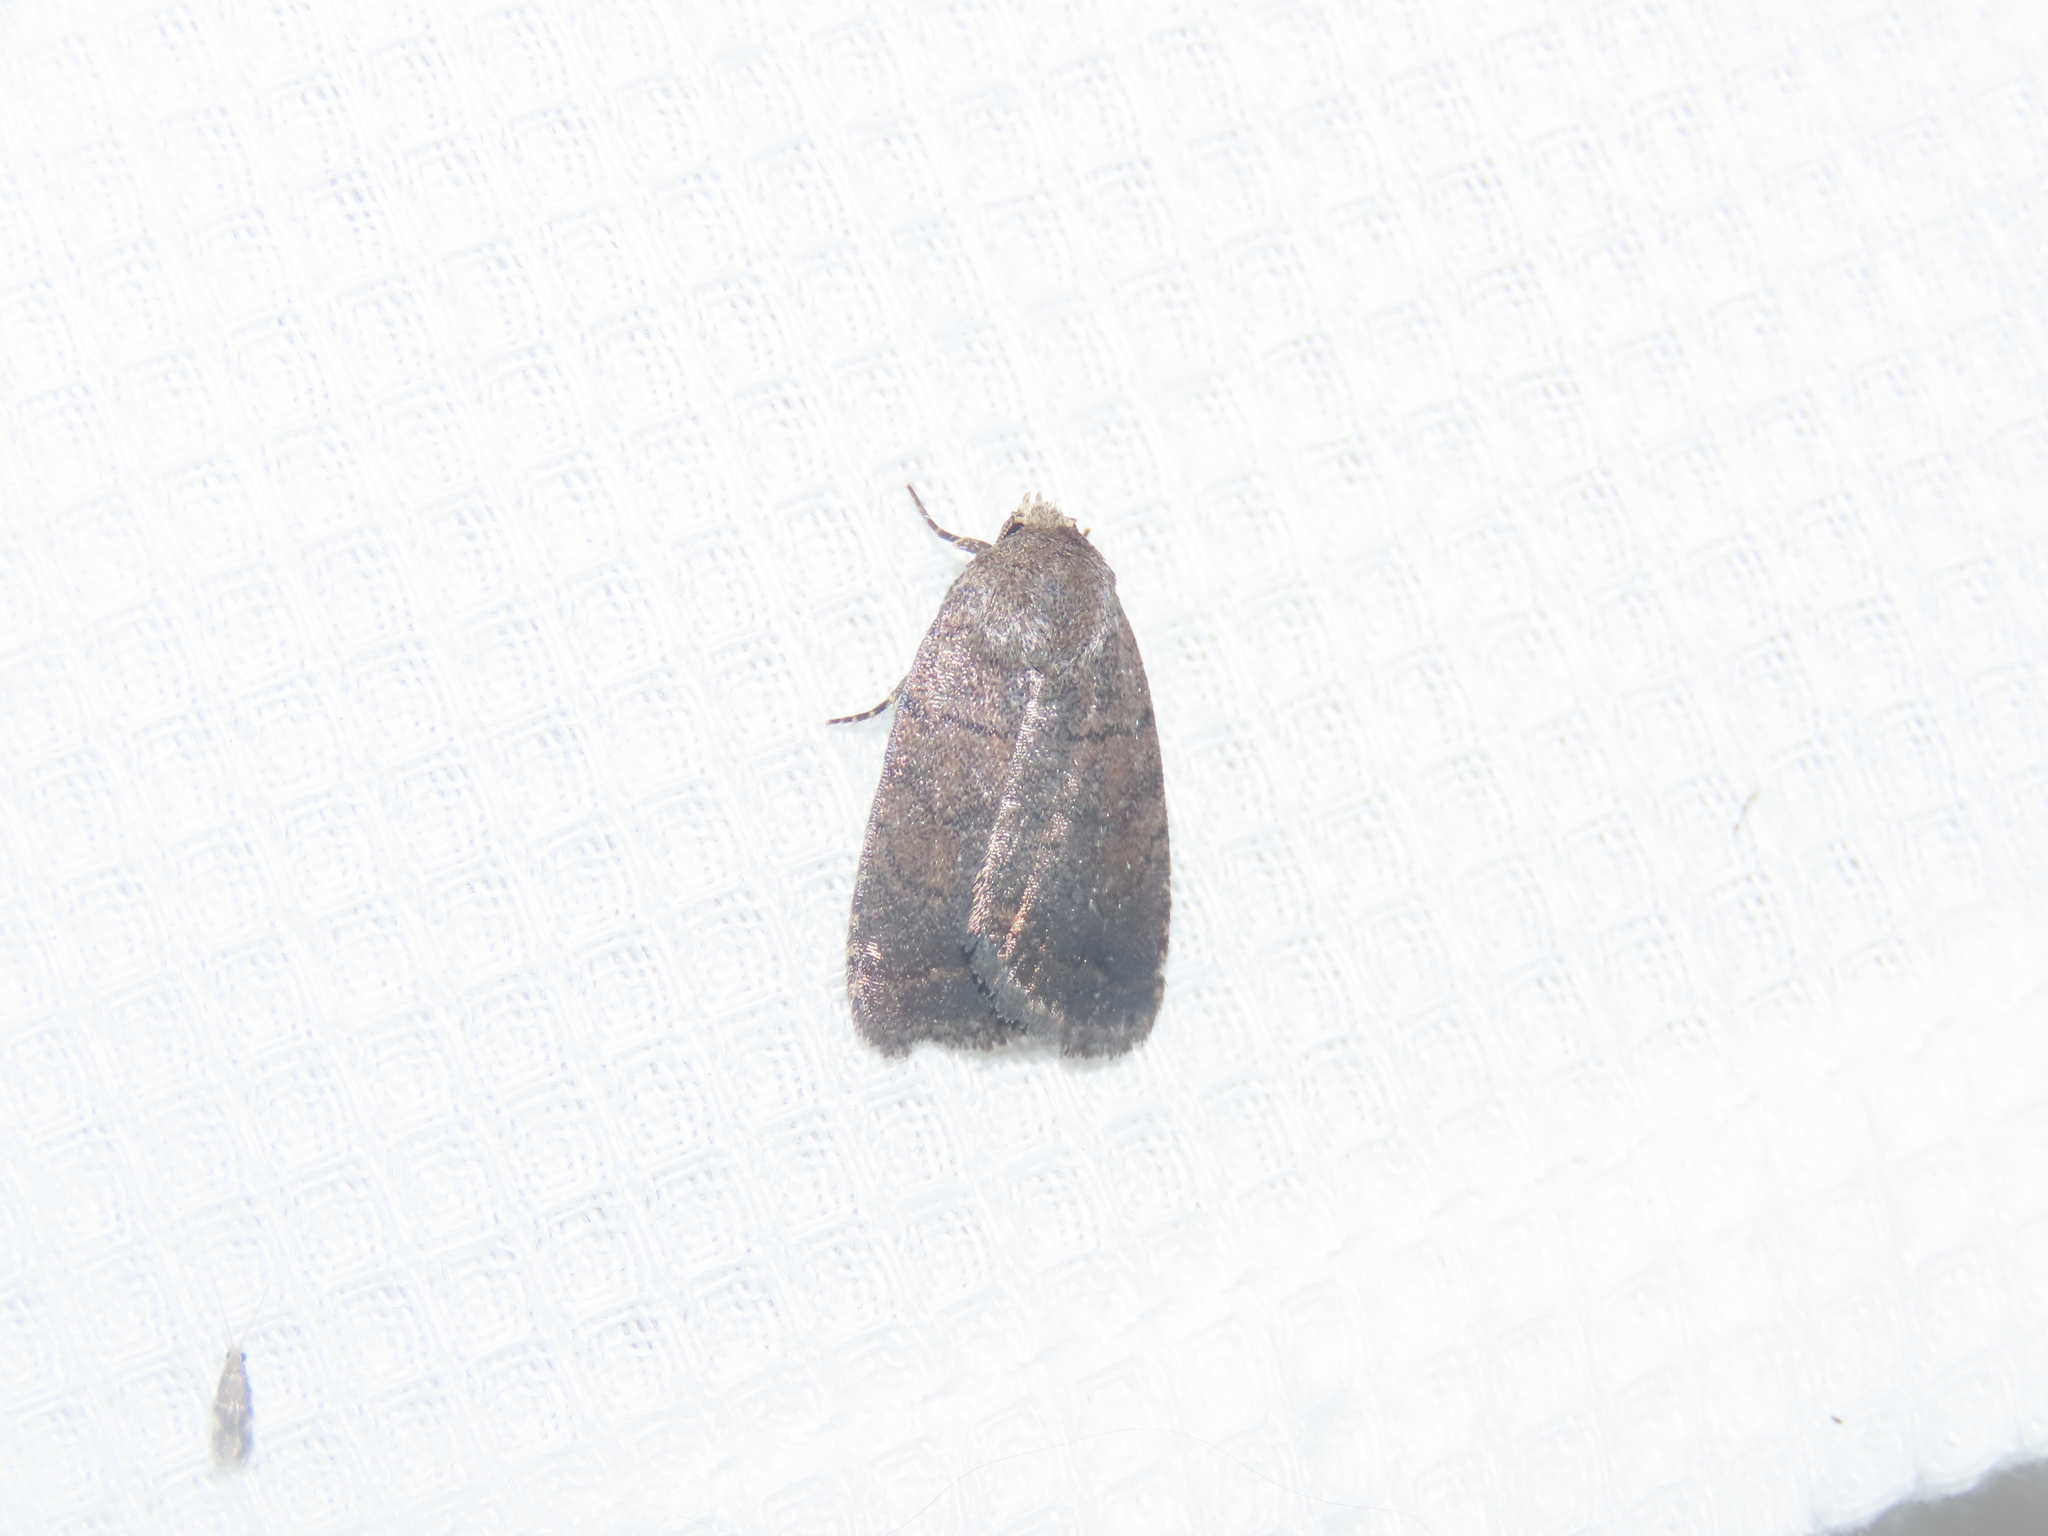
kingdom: Animalia
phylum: Arthropoda
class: Insecta
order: Lepidoptera
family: Noctuidae
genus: Athetis
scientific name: Athetis tarda
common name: Slowpoke moth
